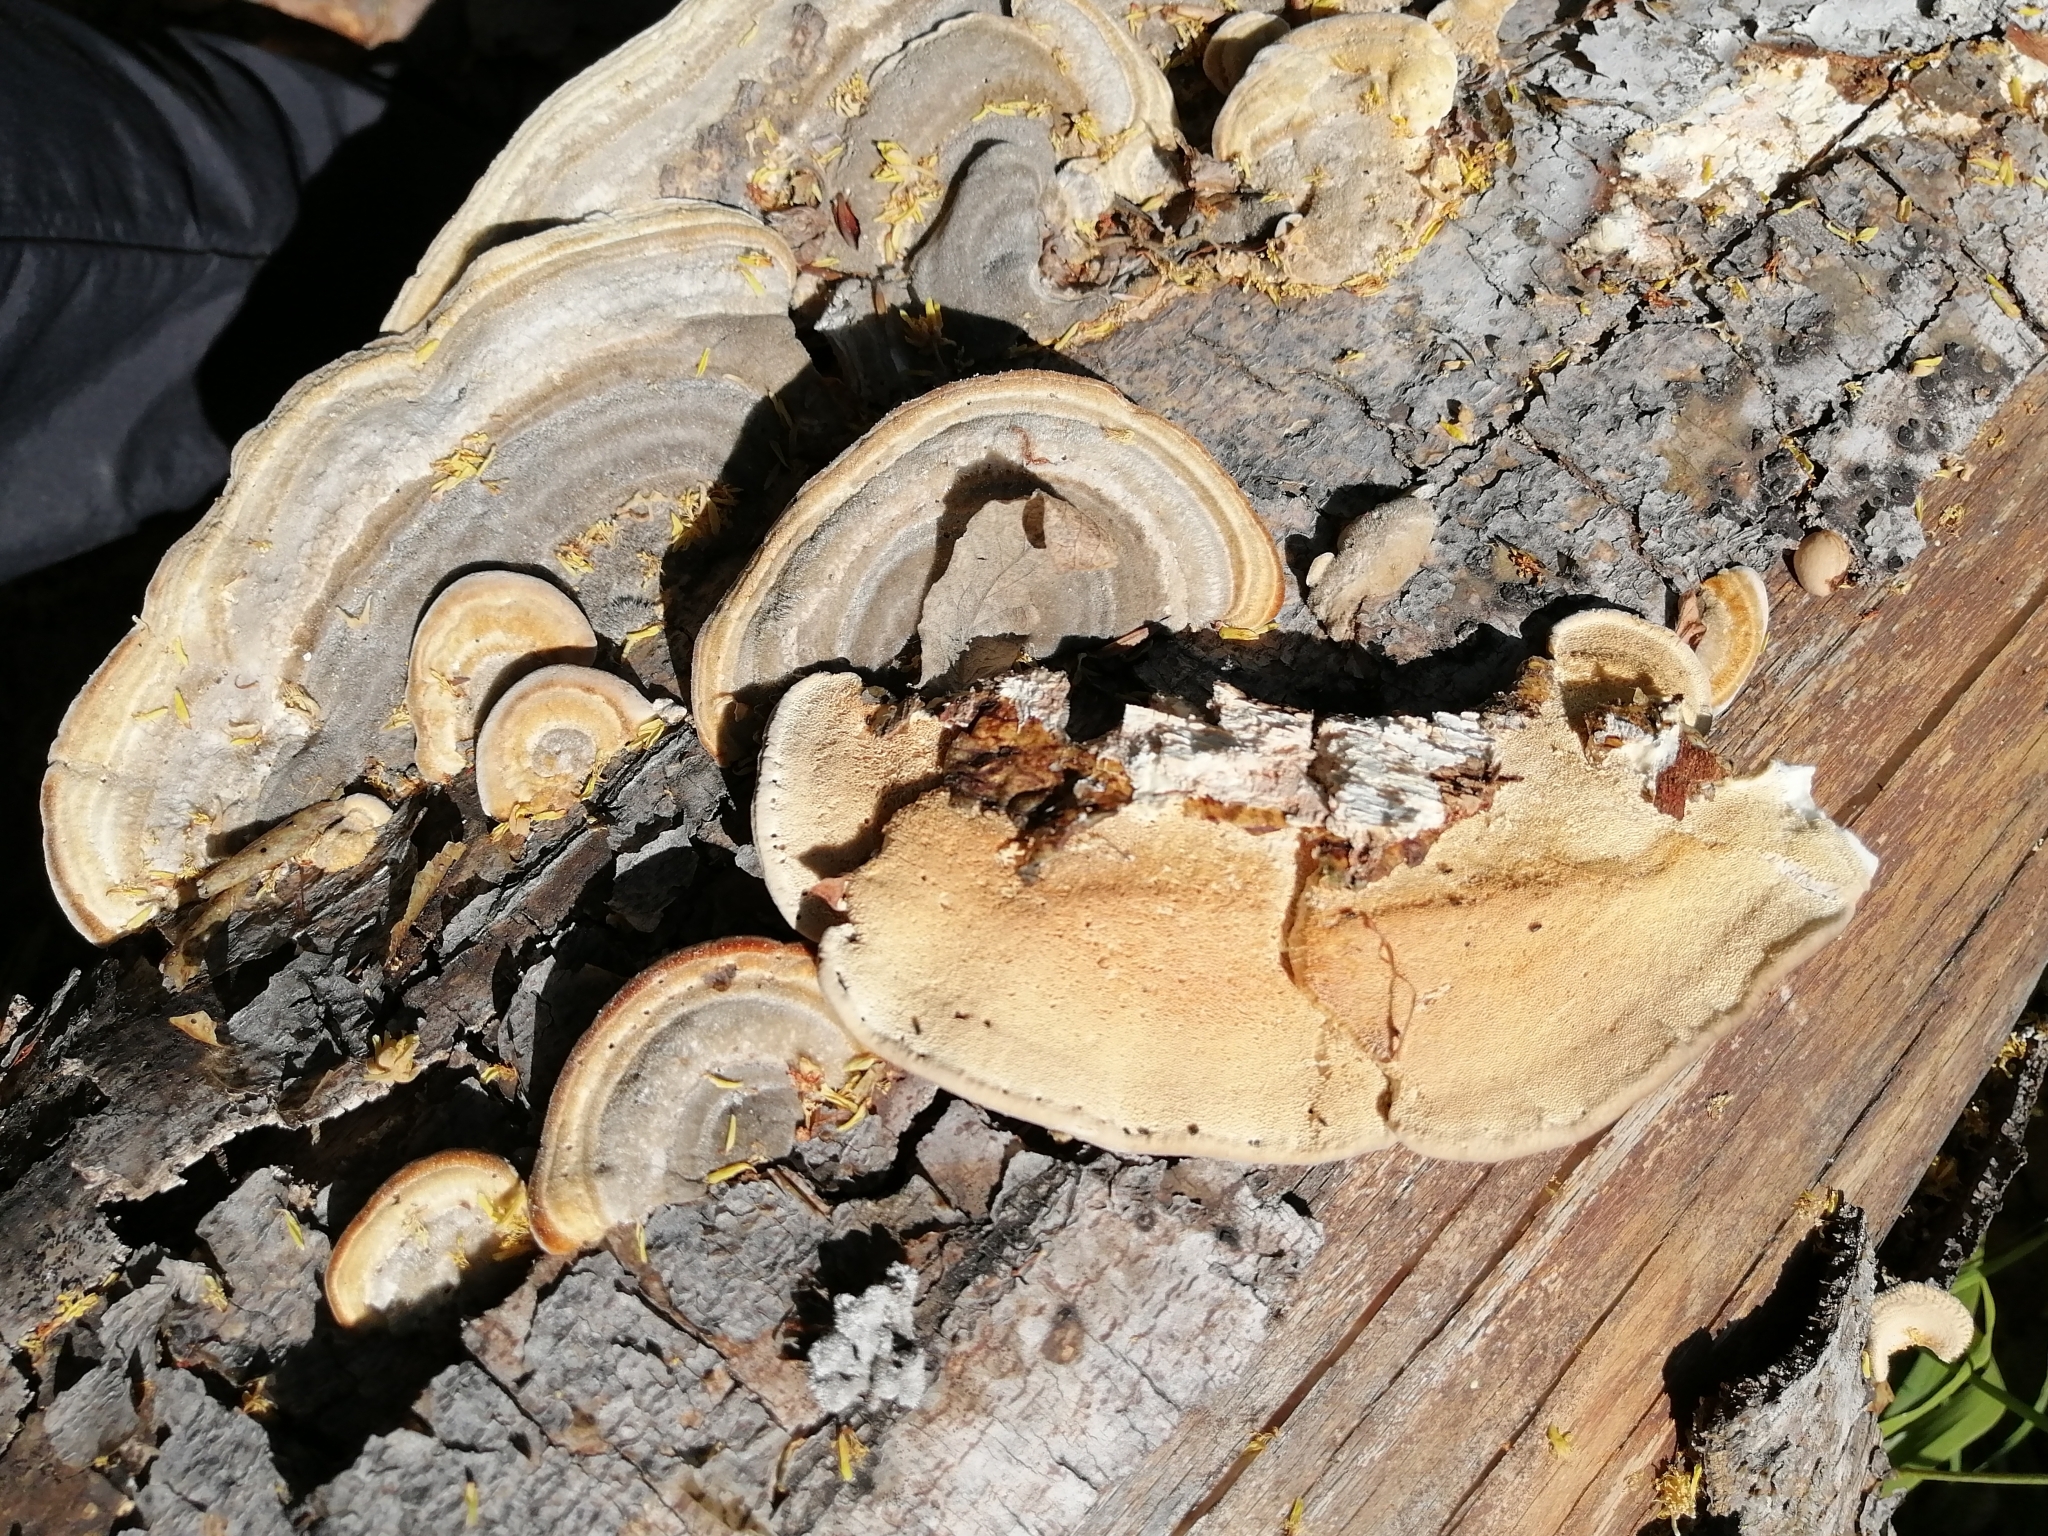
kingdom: Fungi
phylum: Basidiomycota
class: Agaricomycetes
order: Polyporales
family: Polyporaceae
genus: Trametes
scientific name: Trametes hirsuta
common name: Hairy bracket
